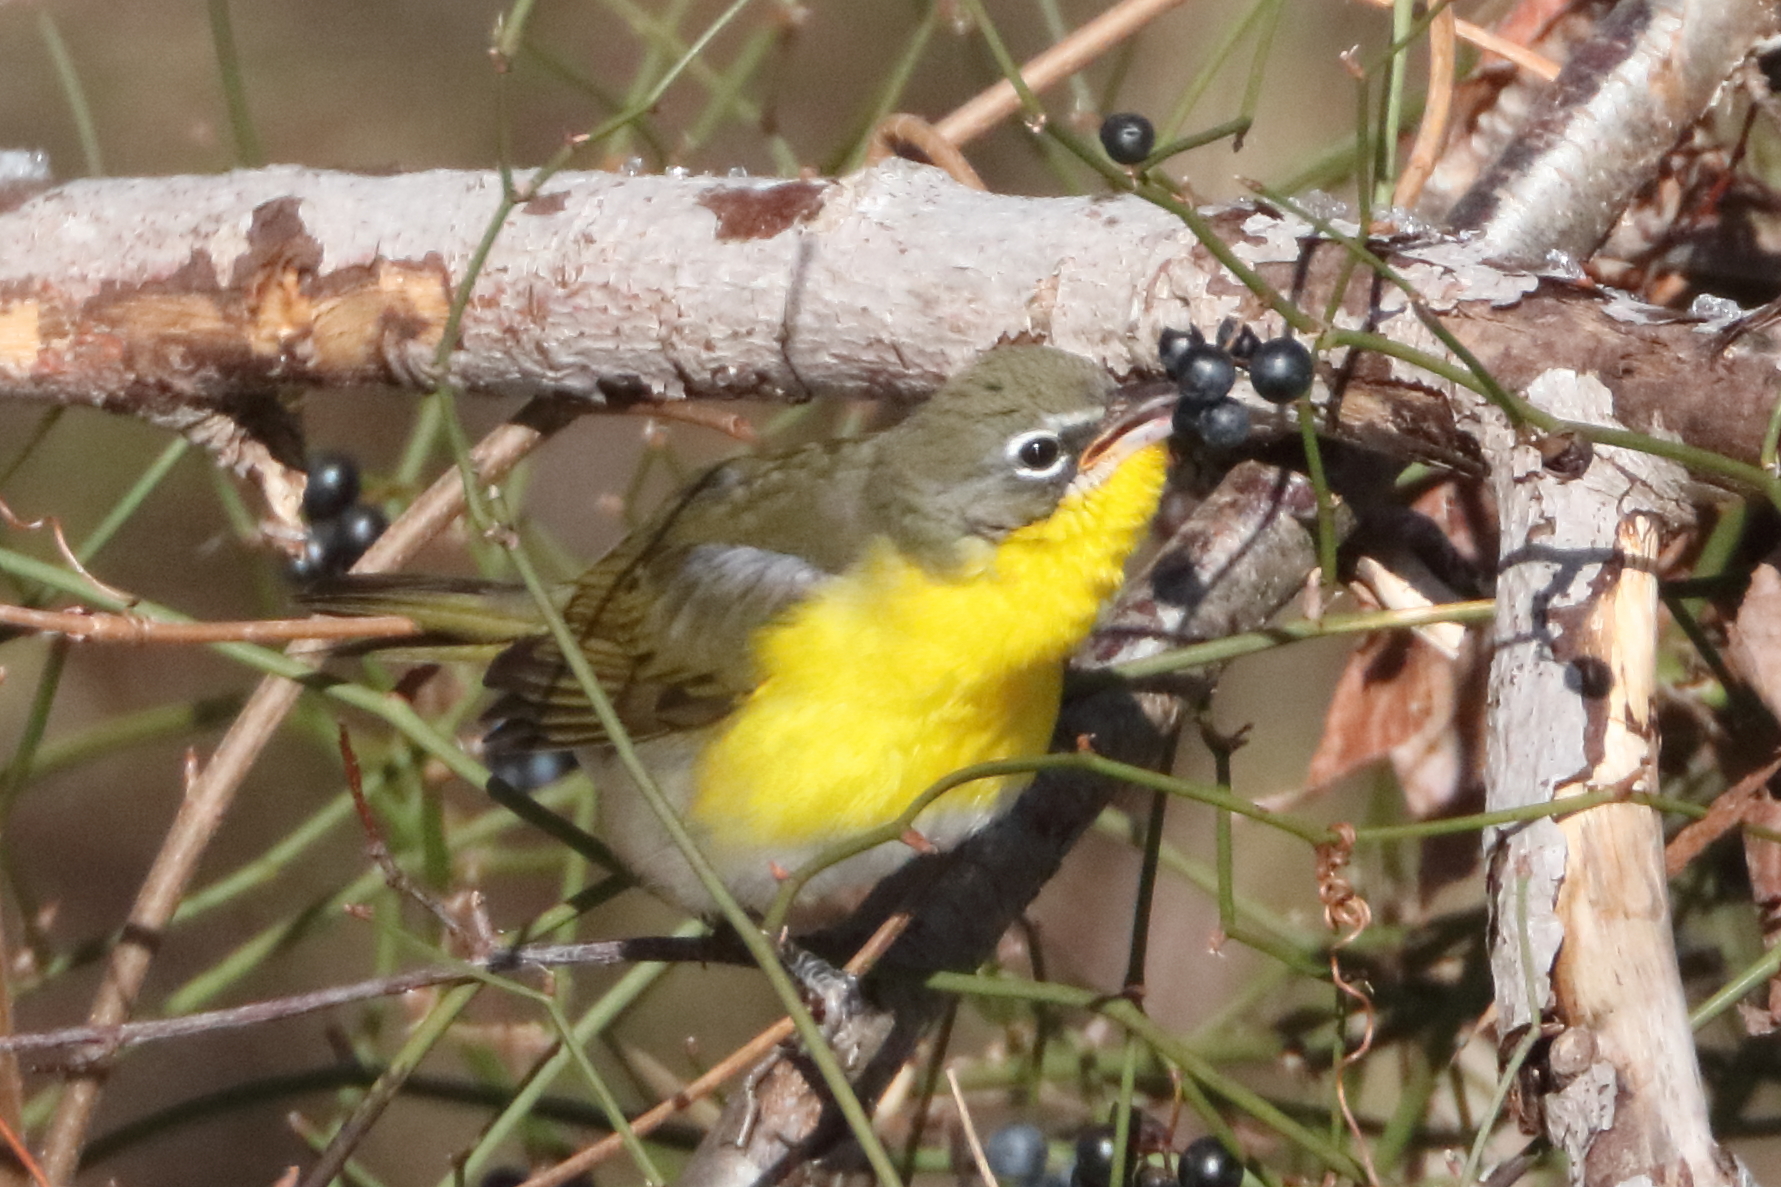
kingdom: Animalia
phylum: Chordata
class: Aves
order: Passeriformes
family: Parulidae
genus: Icteria
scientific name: Icteria virens
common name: Yellow-breasted chat
